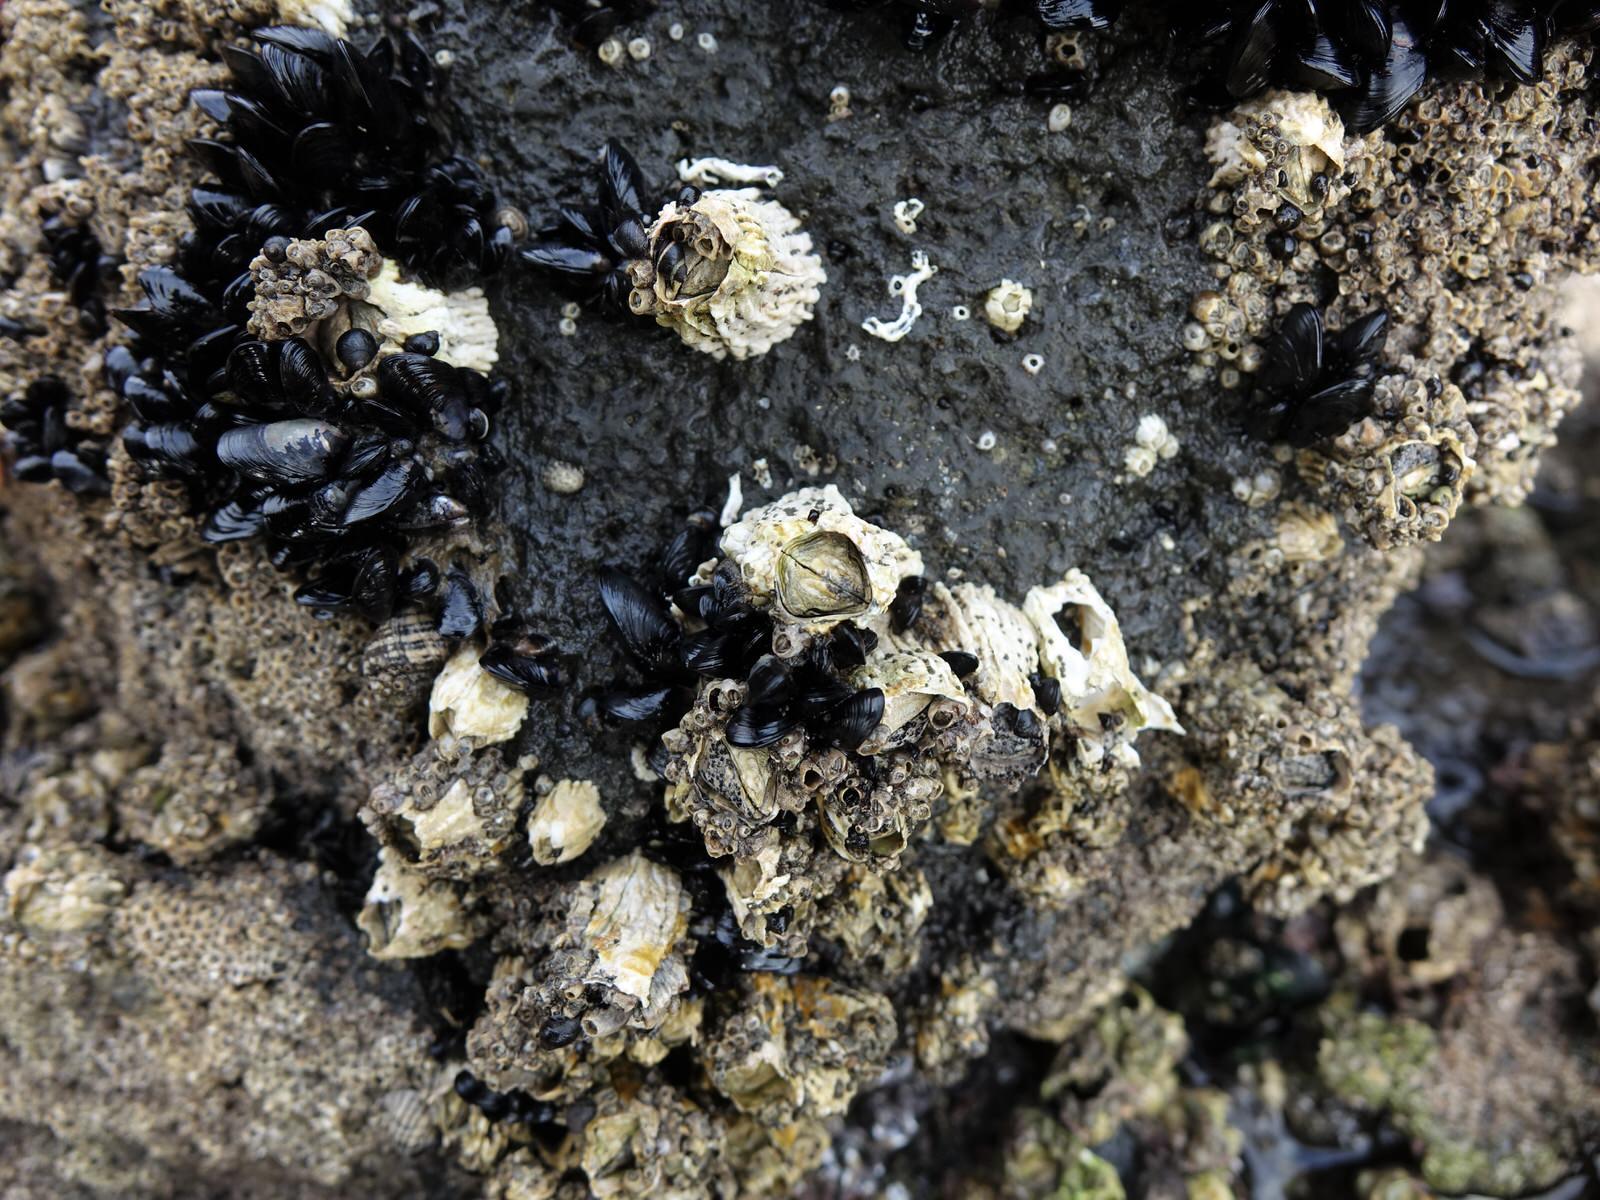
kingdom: Animalia
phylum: Arthropoda
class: Maxillopoda
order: Sessilia
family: Tetraclitidae
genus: Epopella
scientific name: Epopella plicata
